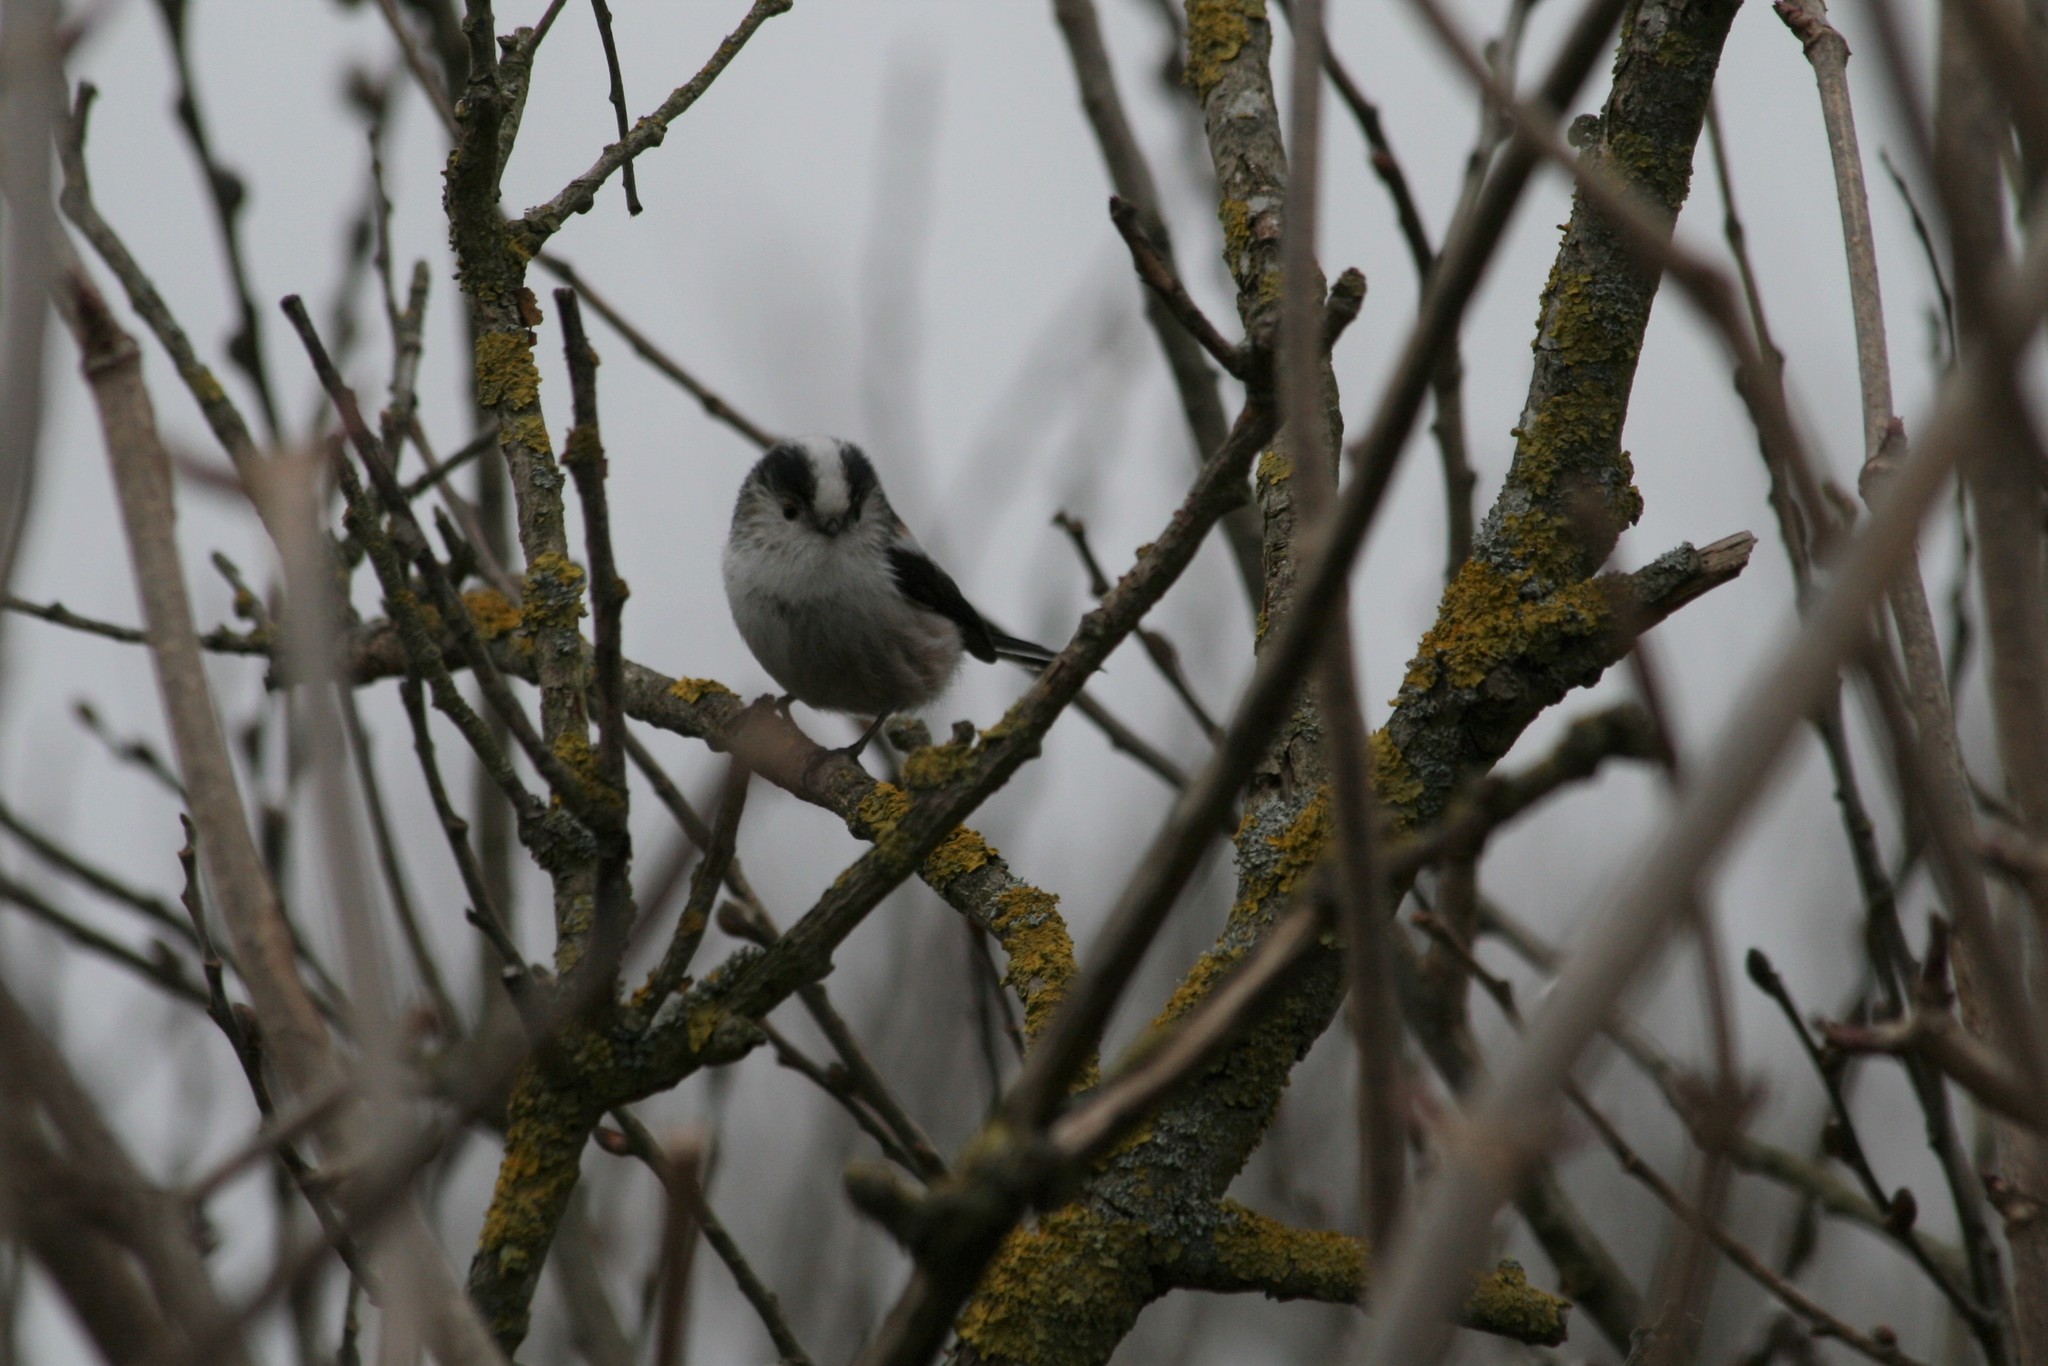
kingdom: Animalia
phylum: Chordata
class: Aves
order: Passeriformes
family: Aegithalidae
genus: Aegithalos
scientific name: Aegithalos caudatus
